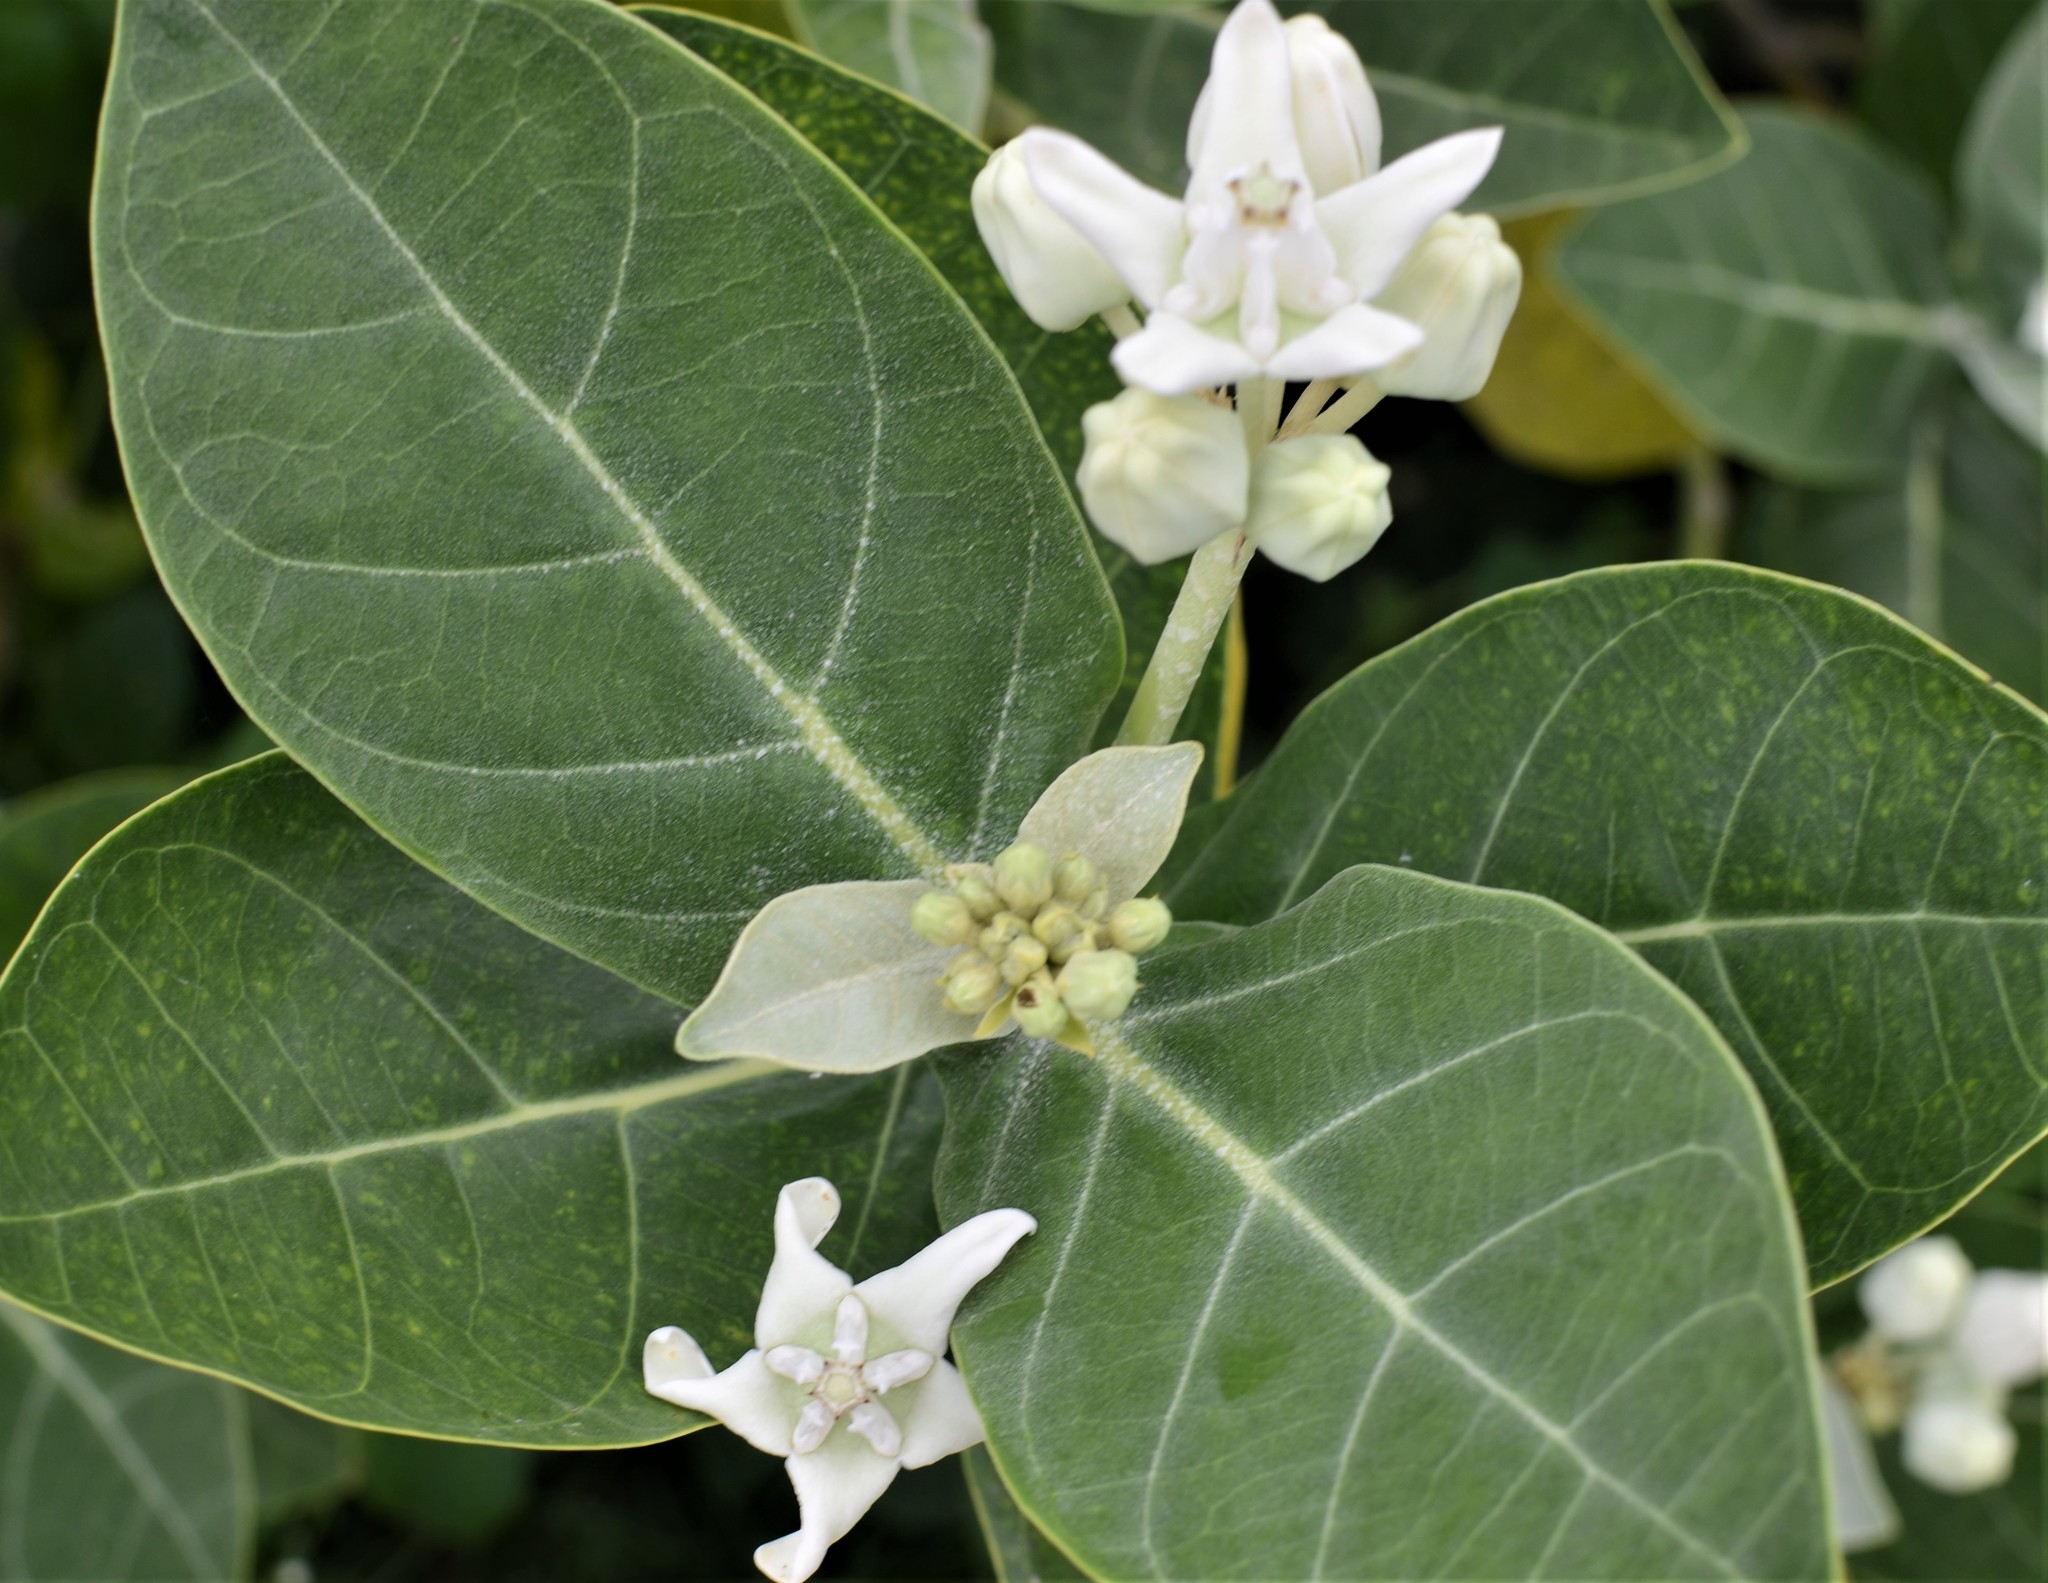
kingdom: Plantae
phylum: Tracheophyta
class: Magnoliopsida
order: Gentianales
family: Apocynaceae
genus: Calotropis
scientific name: Calotropis gigantea
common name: Crown flower
